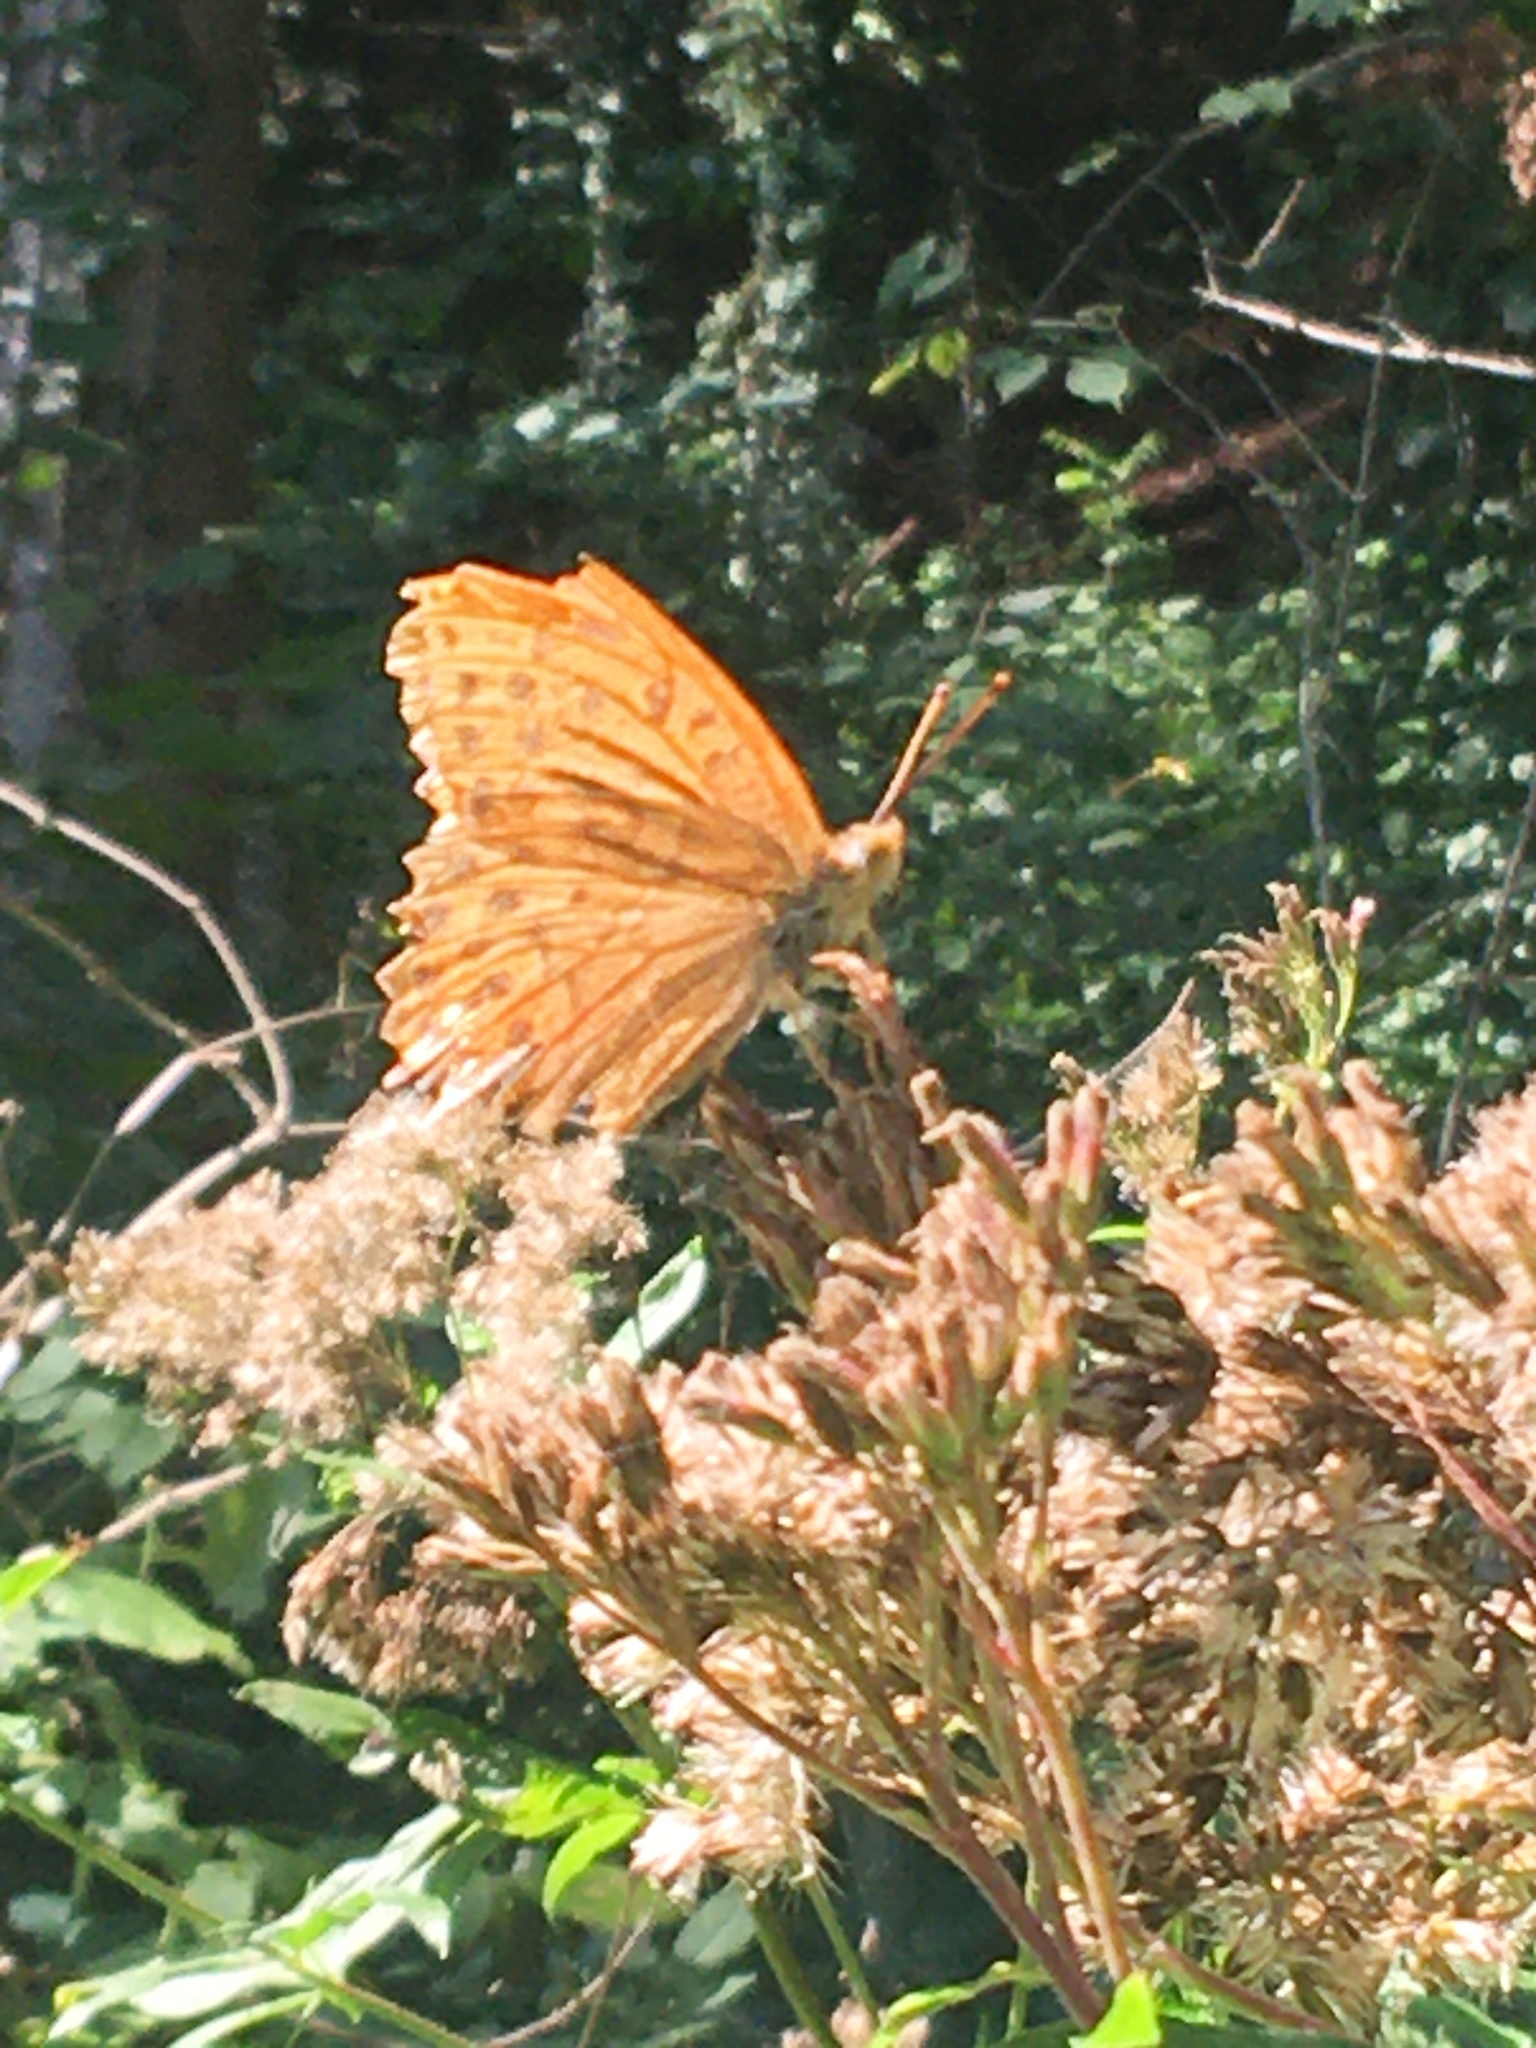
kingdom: Animalia
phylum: Arthropoda
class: Insecta
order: Lepidoptera
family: Nymphalidae
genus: Argynnis
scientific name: Argynnis paphia
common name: Silver-washed fritillary
